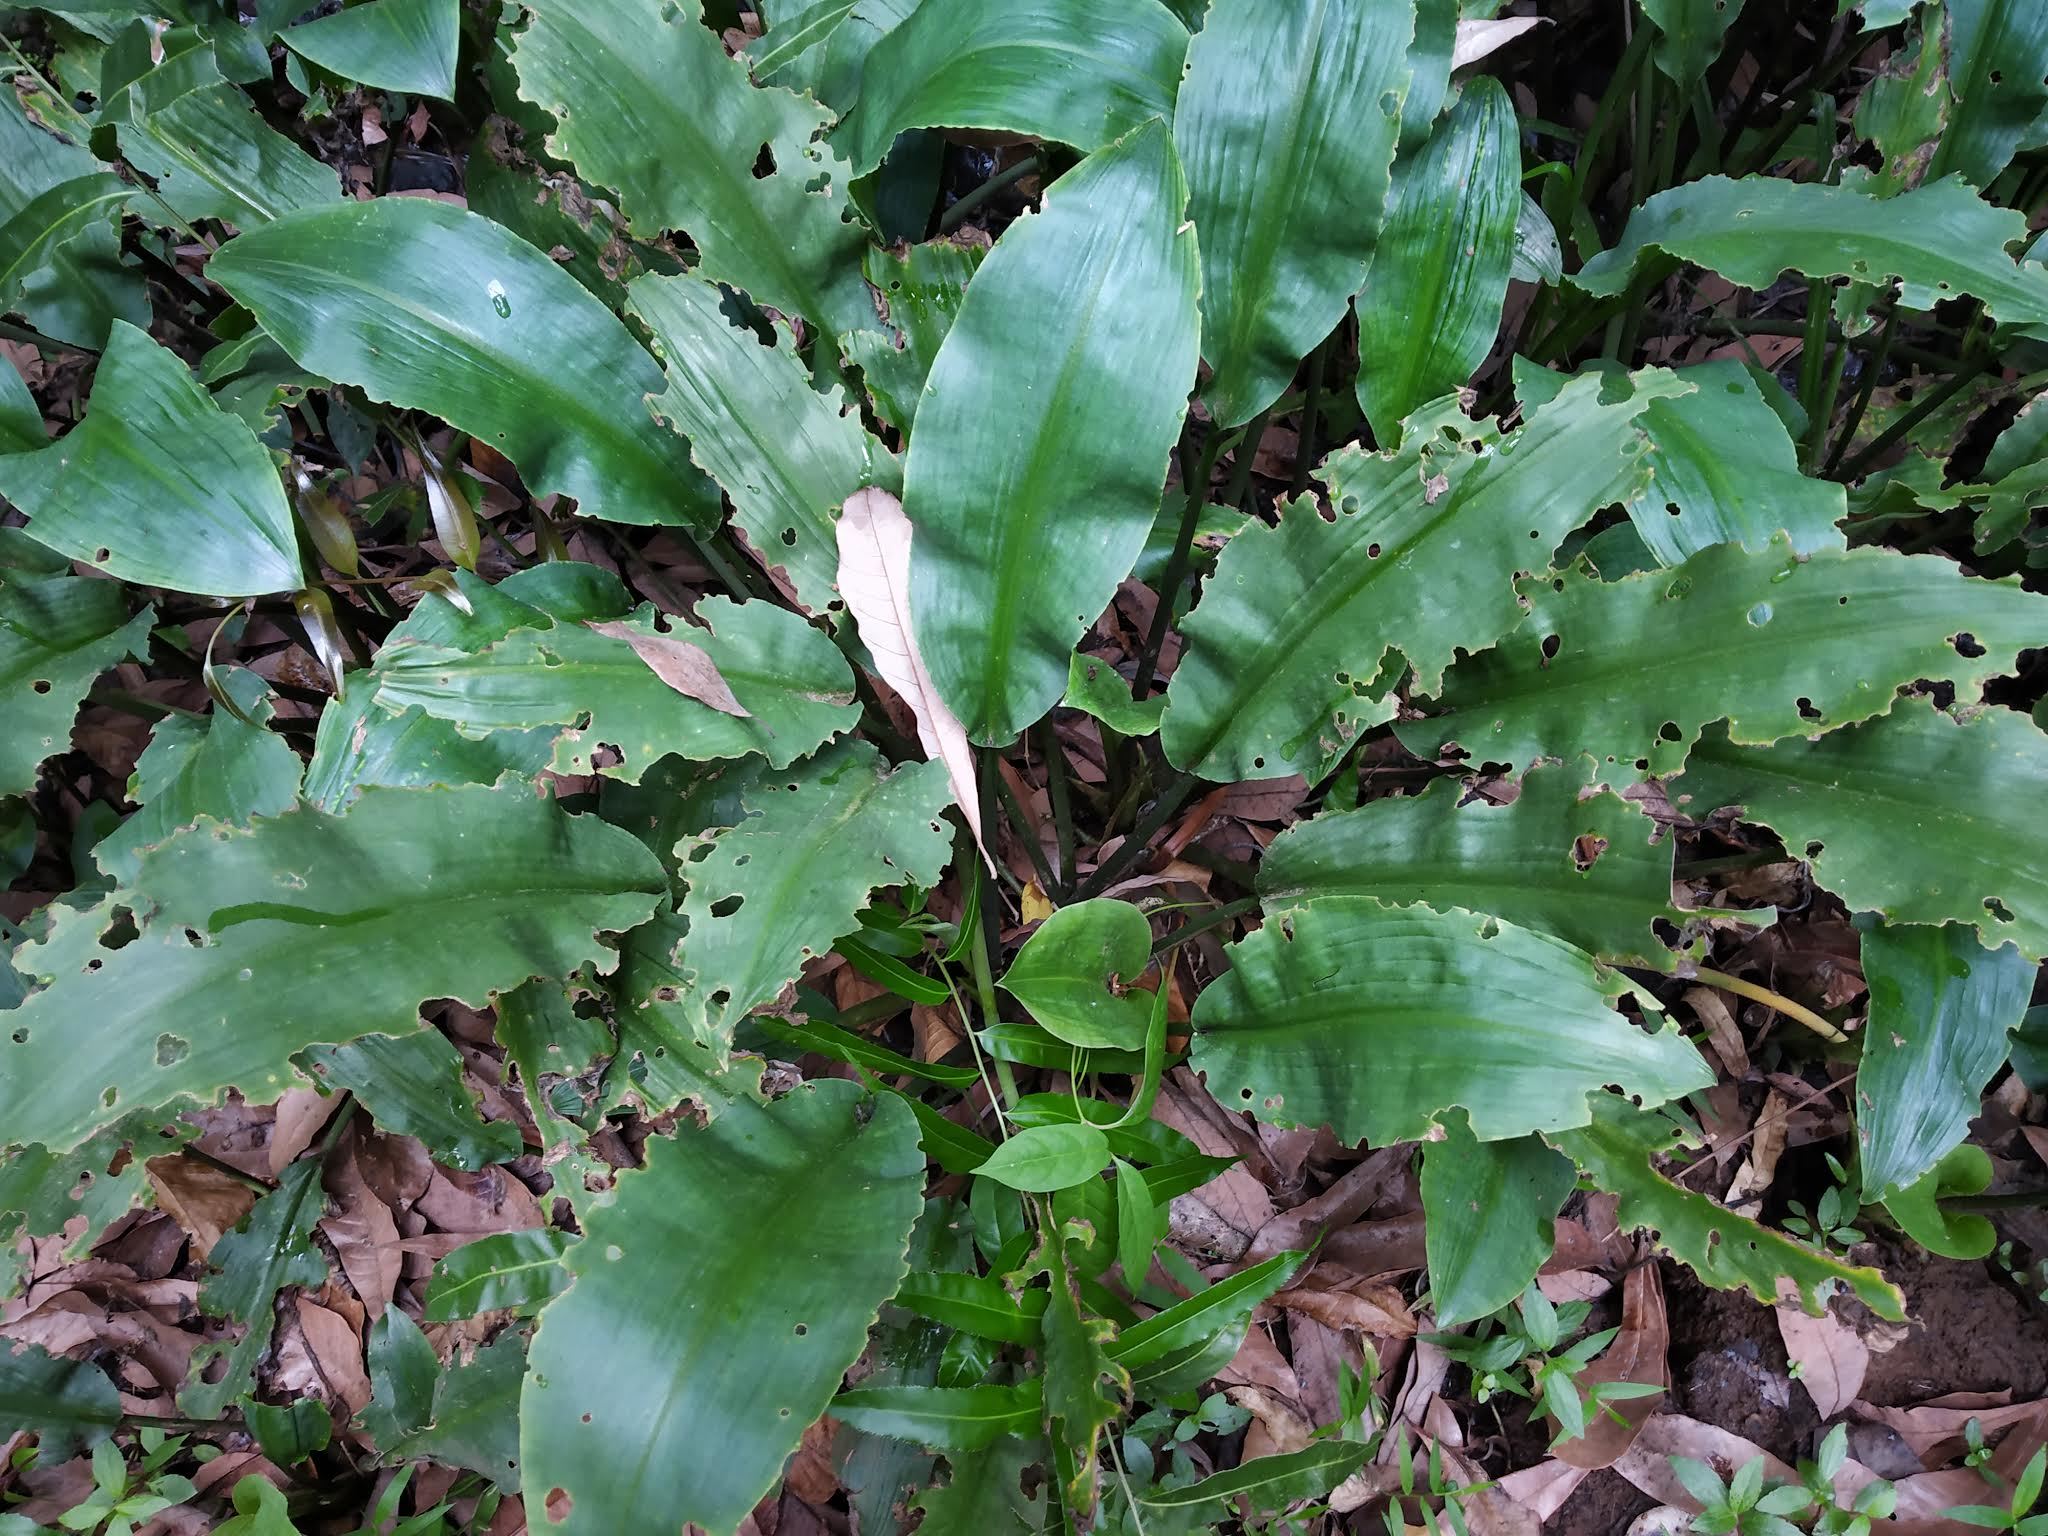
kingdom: Plantae
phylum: Tracheophyta
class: Liliopsida
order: Alismatales
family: Araceae
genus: Lagenandra
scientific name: Lagenandra toxicaria
